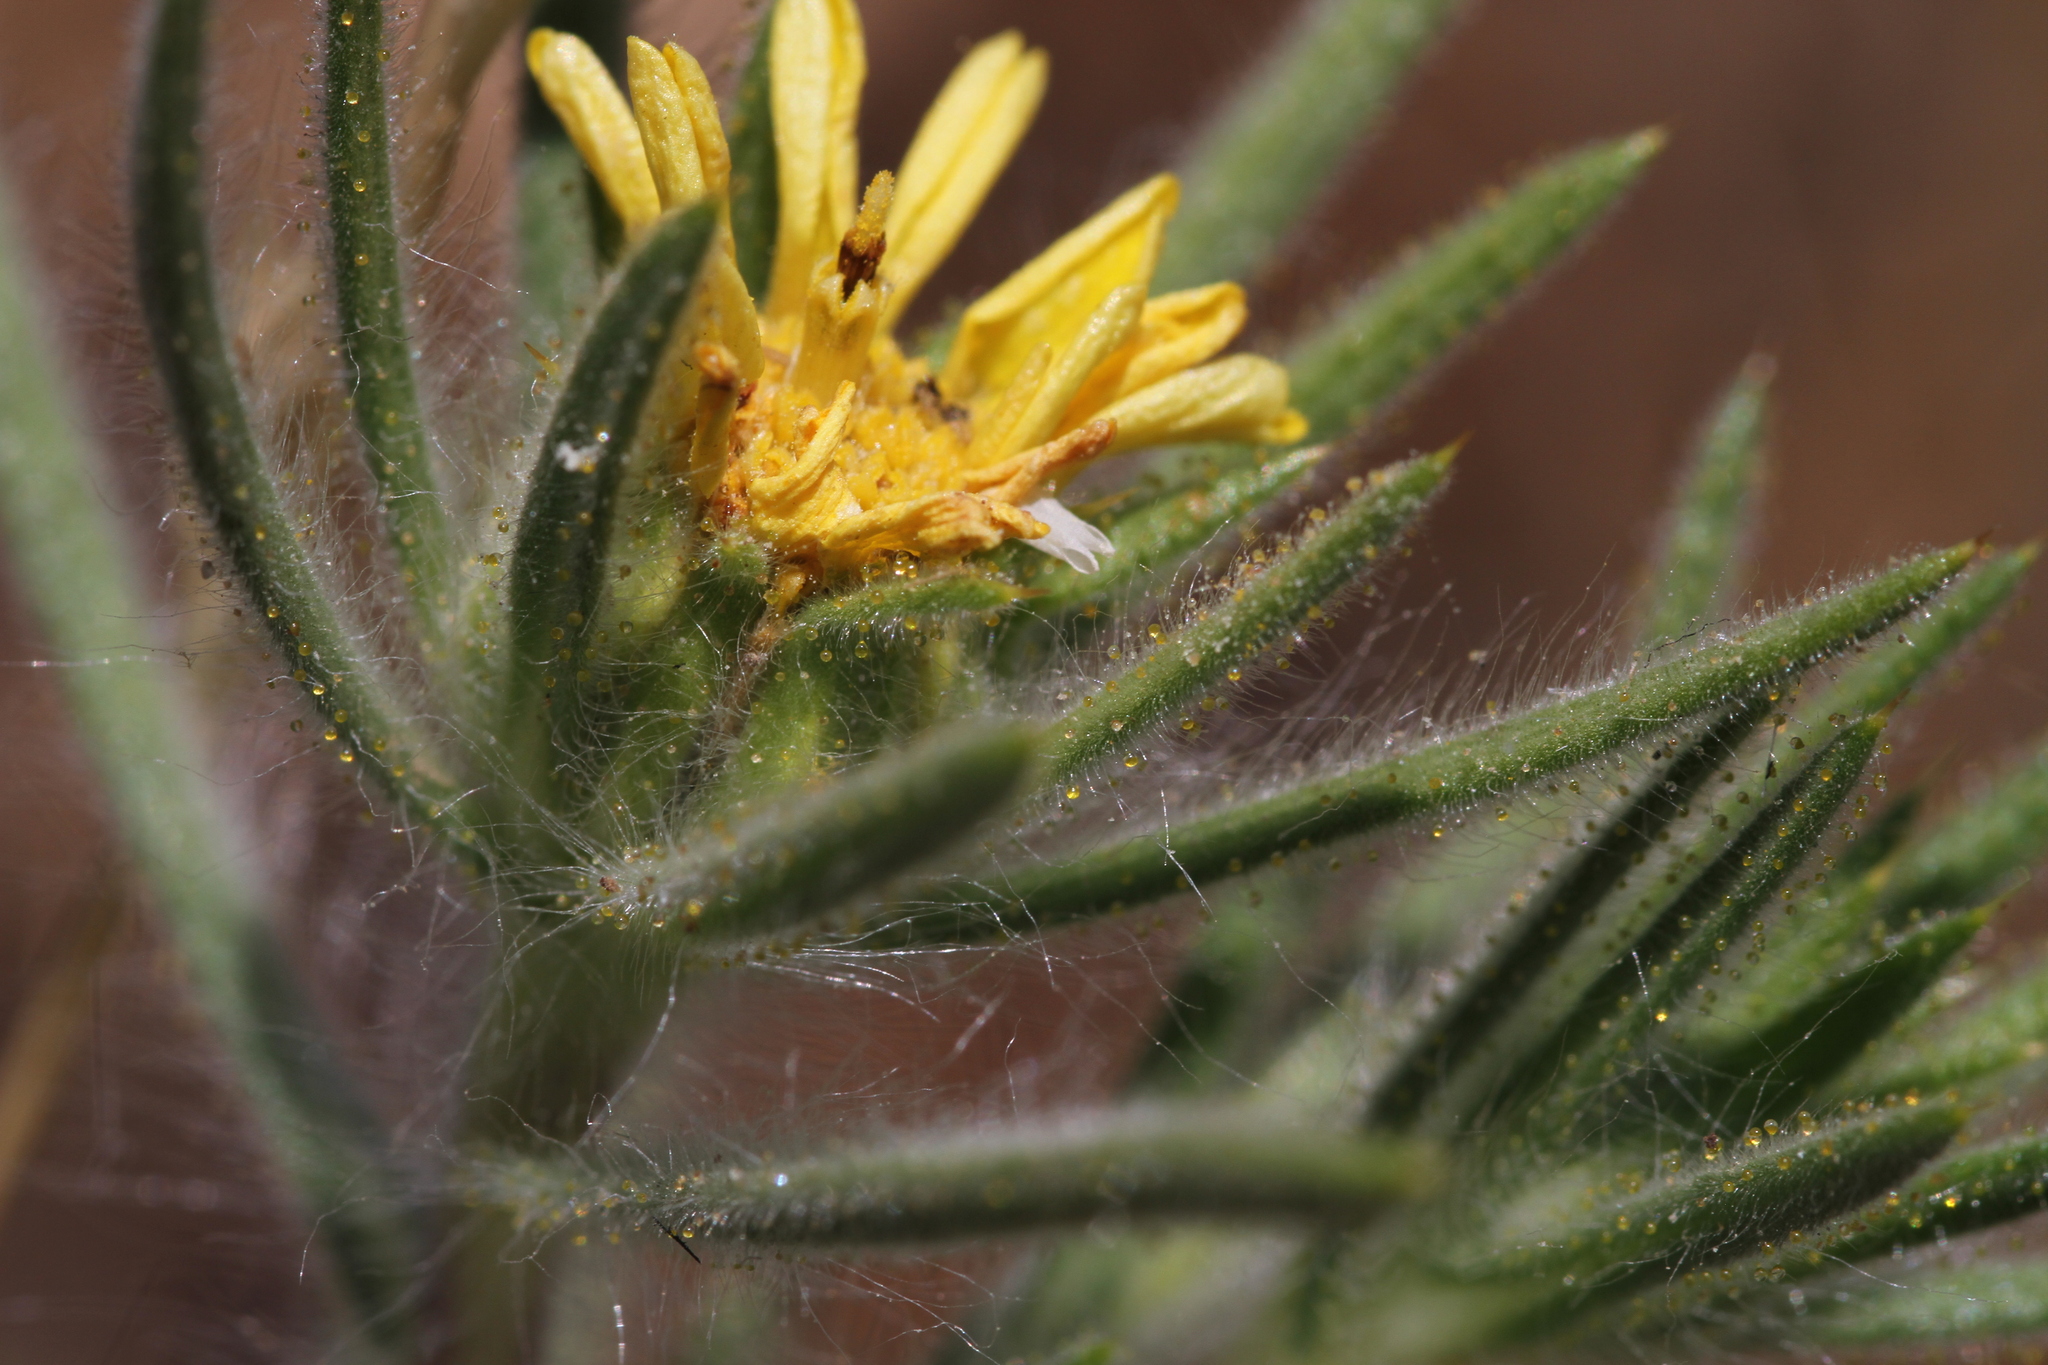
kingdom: Plantae
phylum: Tracheophyta
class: Magnoliopsida
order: Asterales
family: Asteraceae
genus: Centromadia
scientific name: Centromadia fitchii
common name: Fitch's spikeweed
